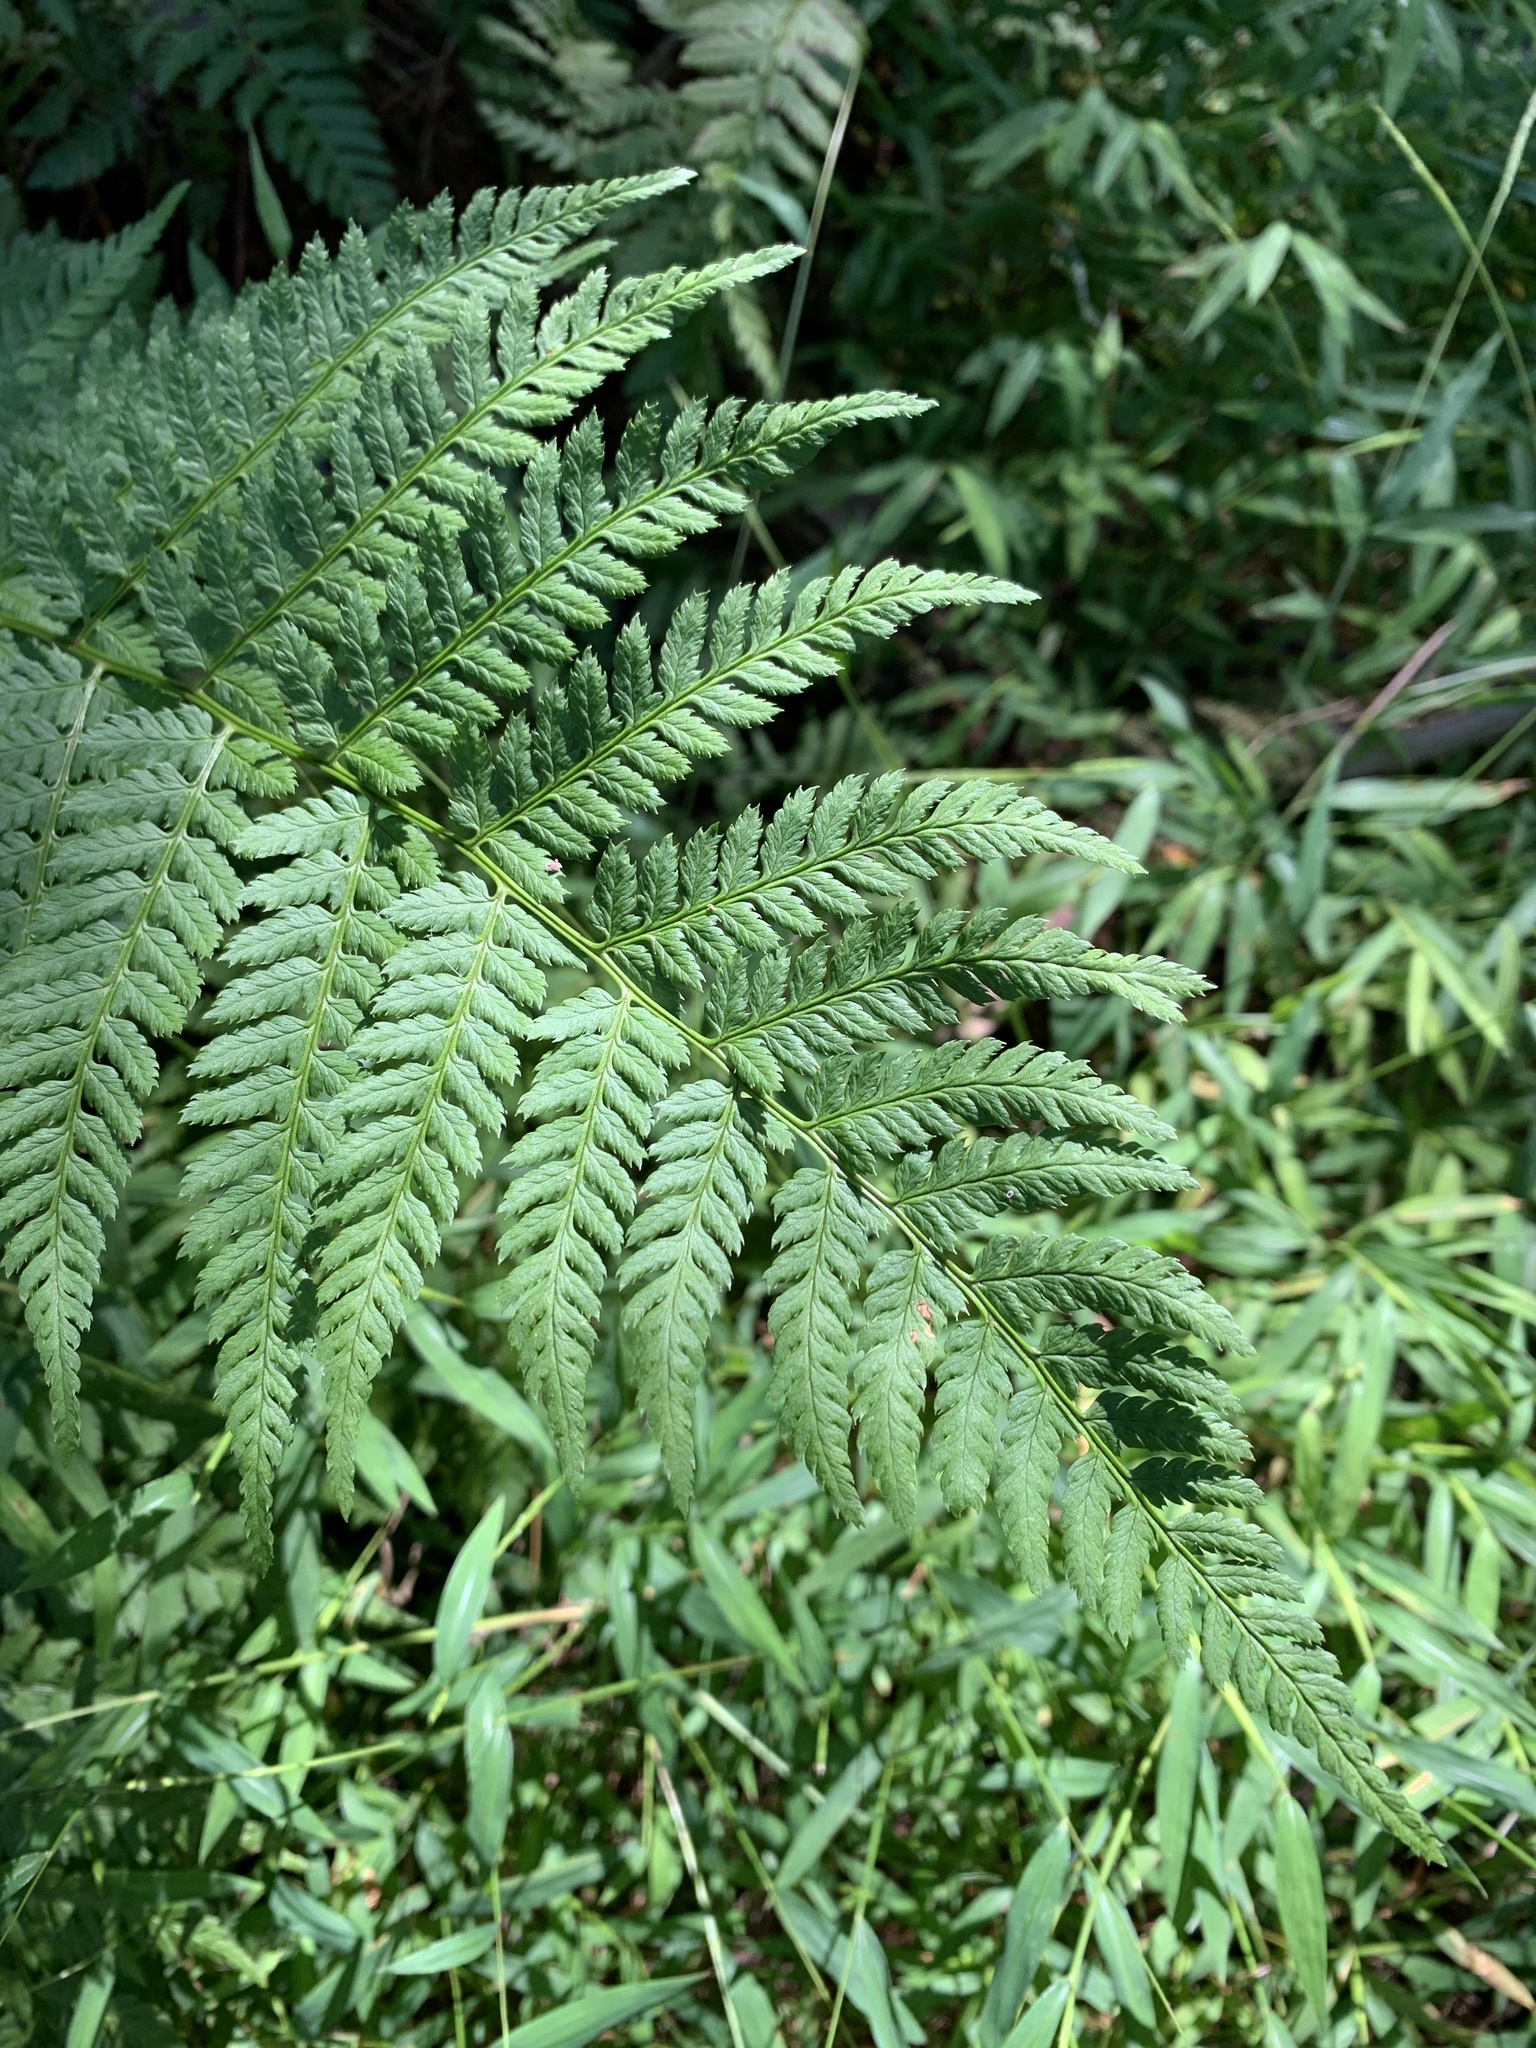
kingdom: Plantae
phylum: Tracheophyta
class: Polypodiopsida
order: Polypodiales
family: Dryopteridaceae
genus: Dryopteris
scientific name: Dryopteris carthusiana
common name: Narrow buckler-fern
